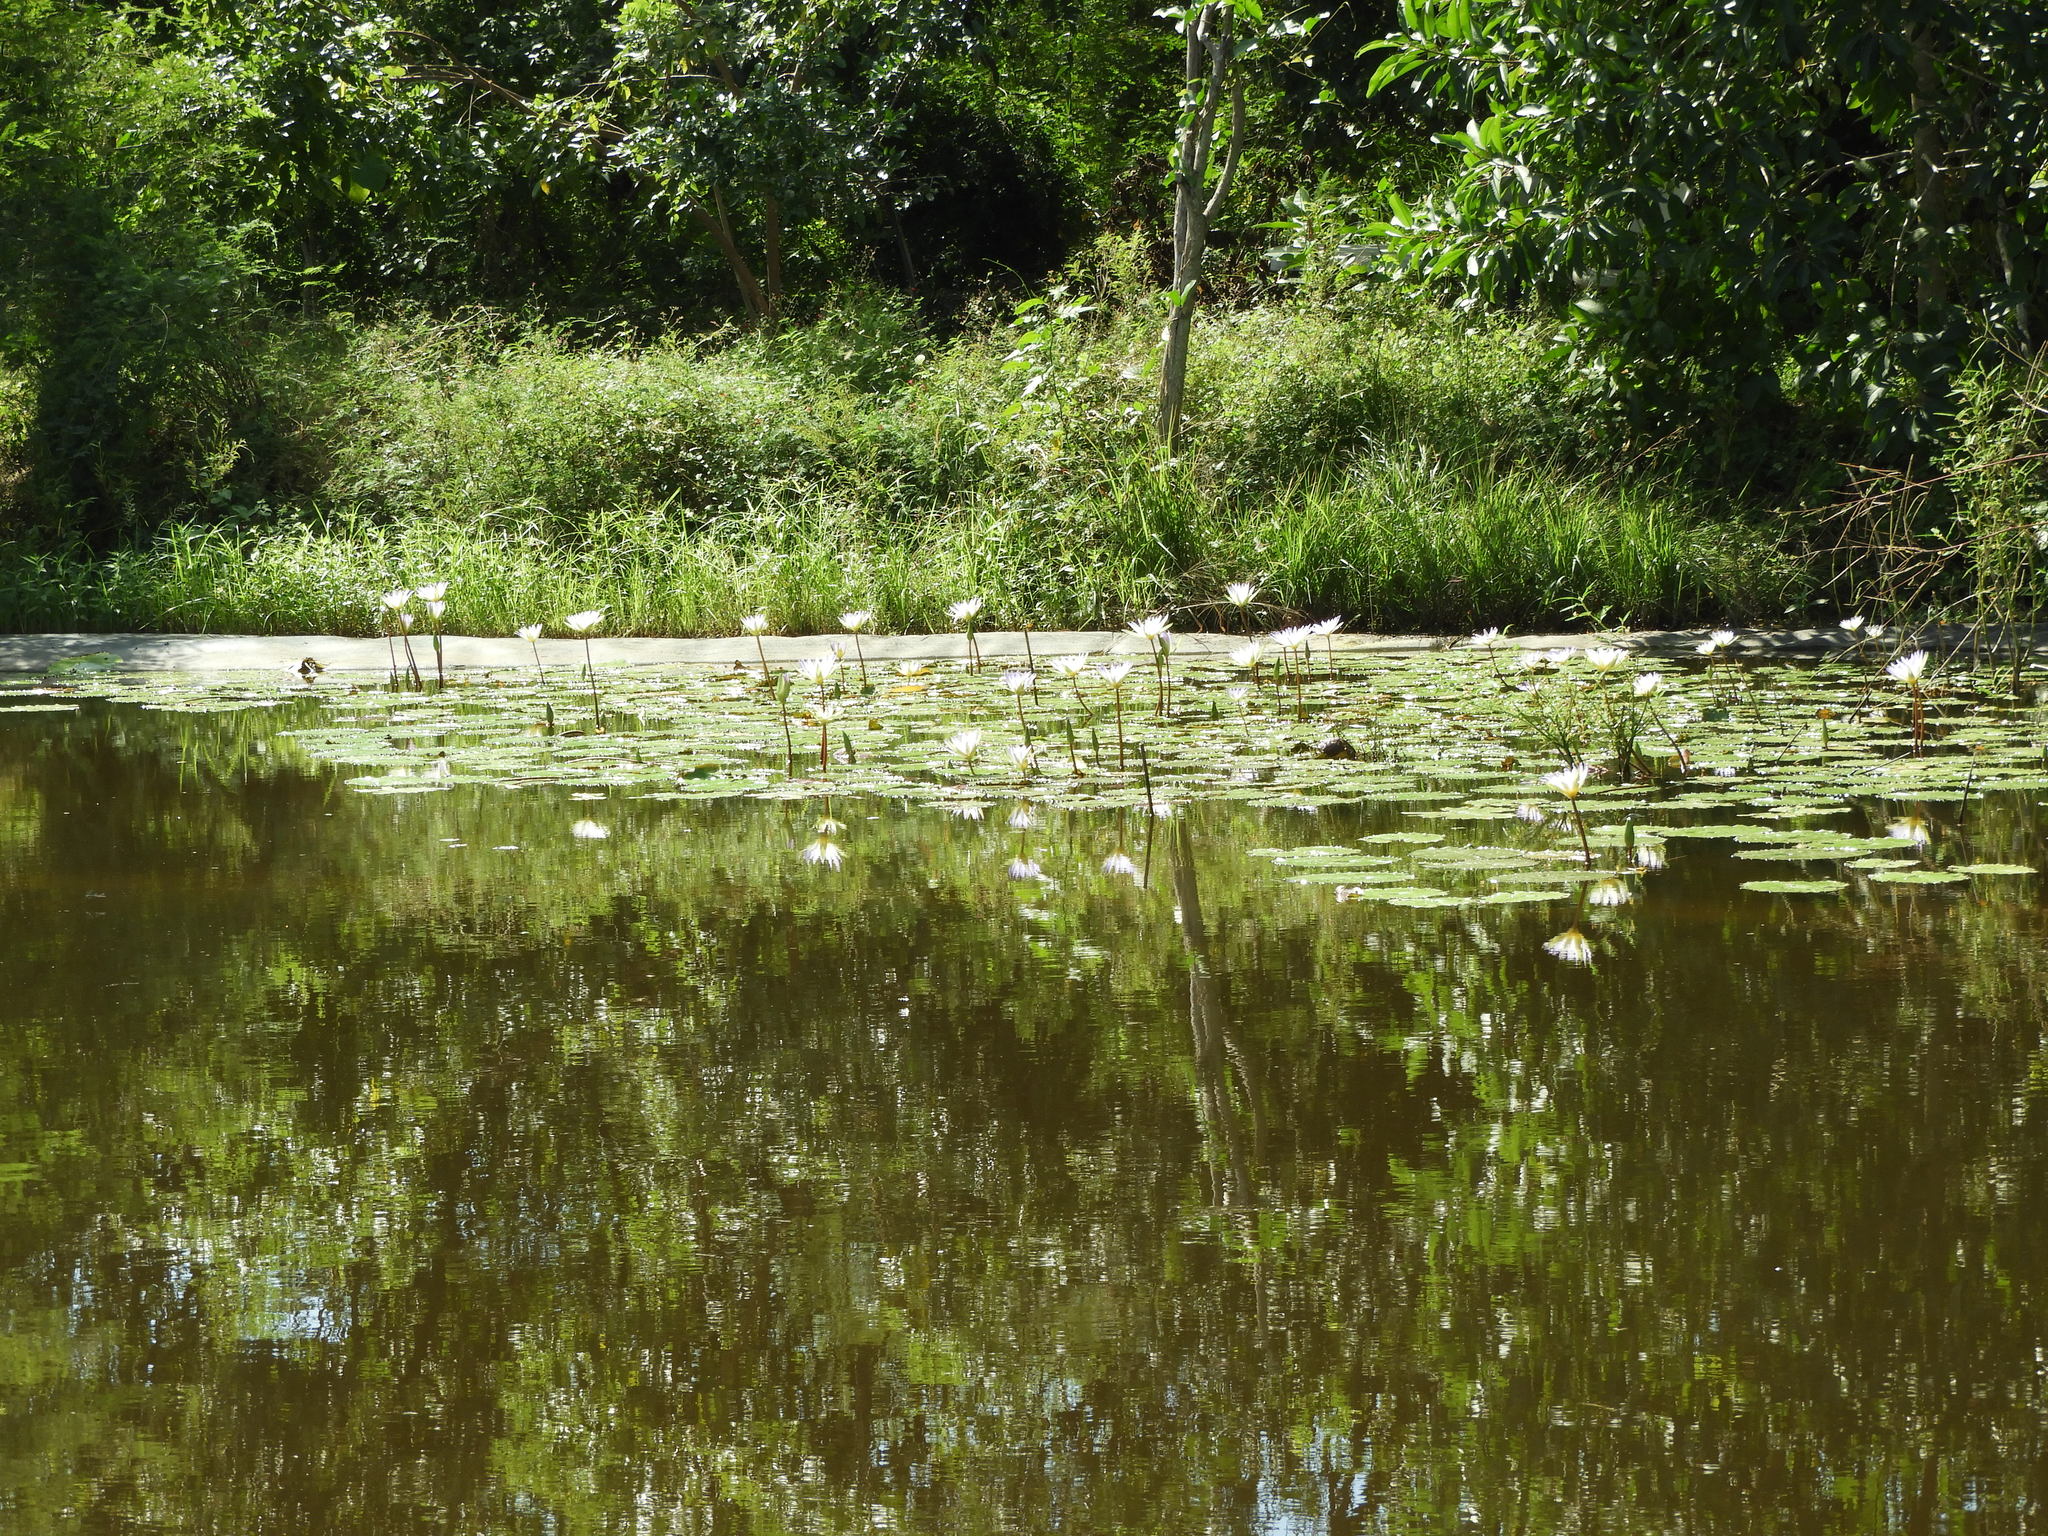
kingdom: Plantae
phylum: Tracheophyta
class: Magnoliopsida
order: Nymphaeales
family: Nymphaeaceae
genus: Nymphaea
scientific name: Nymphaea elegans
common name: Blue water-lily
